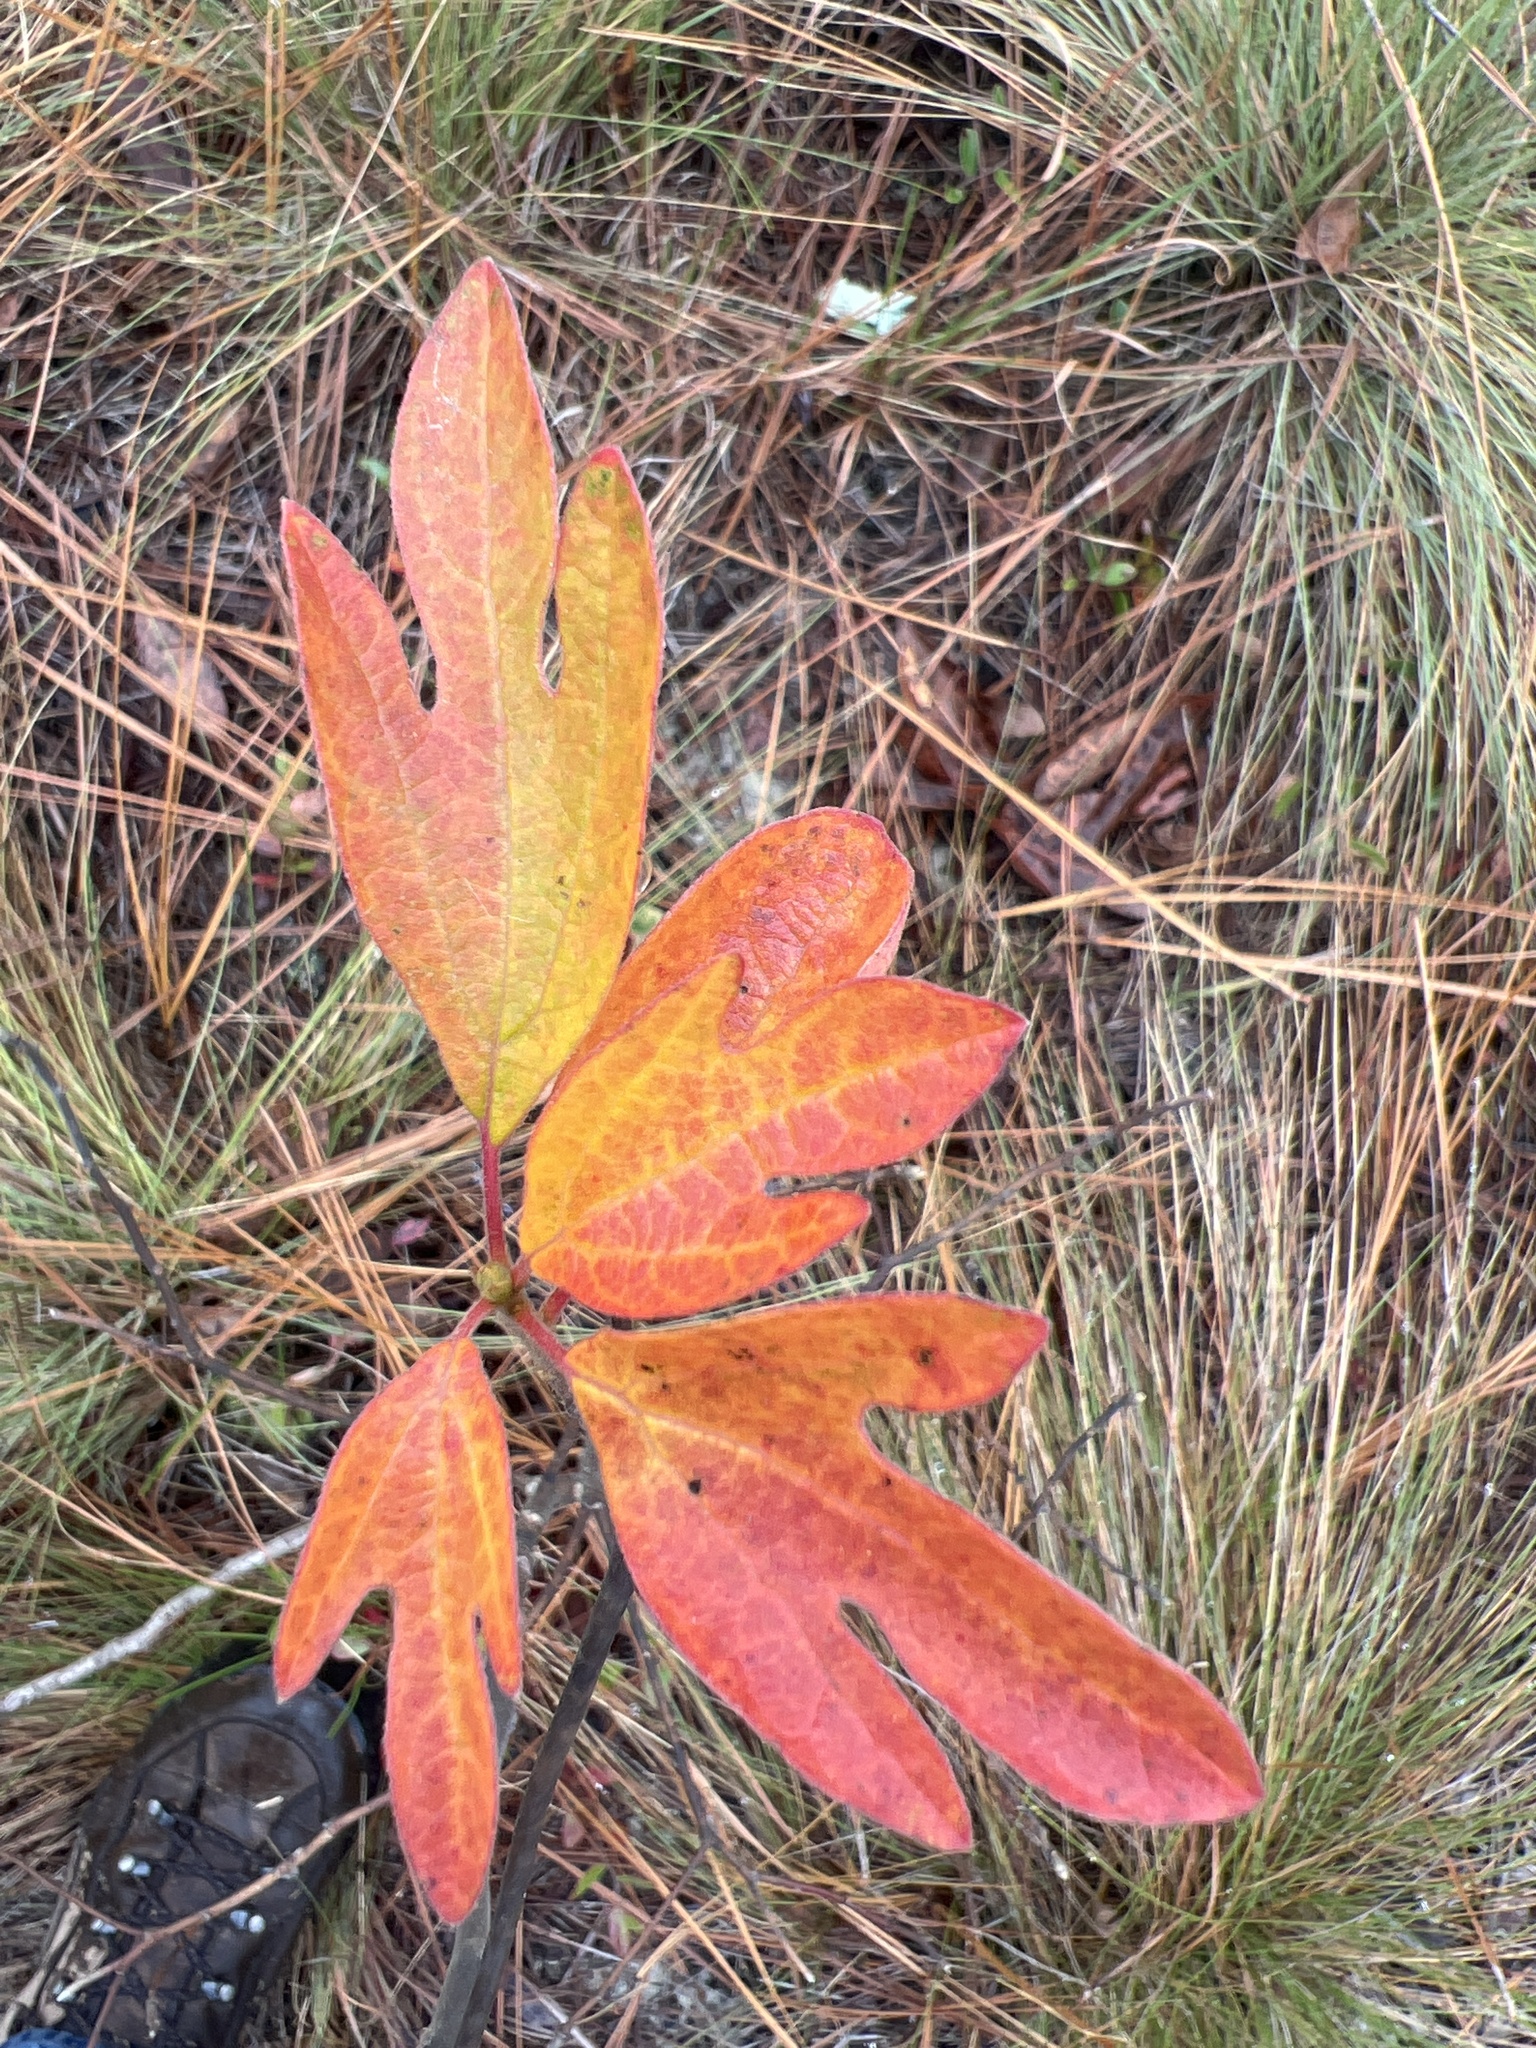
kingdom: Plantae
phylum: Tracheophyta
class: Magnoliopsida
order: Laurales
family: Lauraceae
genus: Sassafras
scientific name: Sassafras albidum
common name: Sassafras
